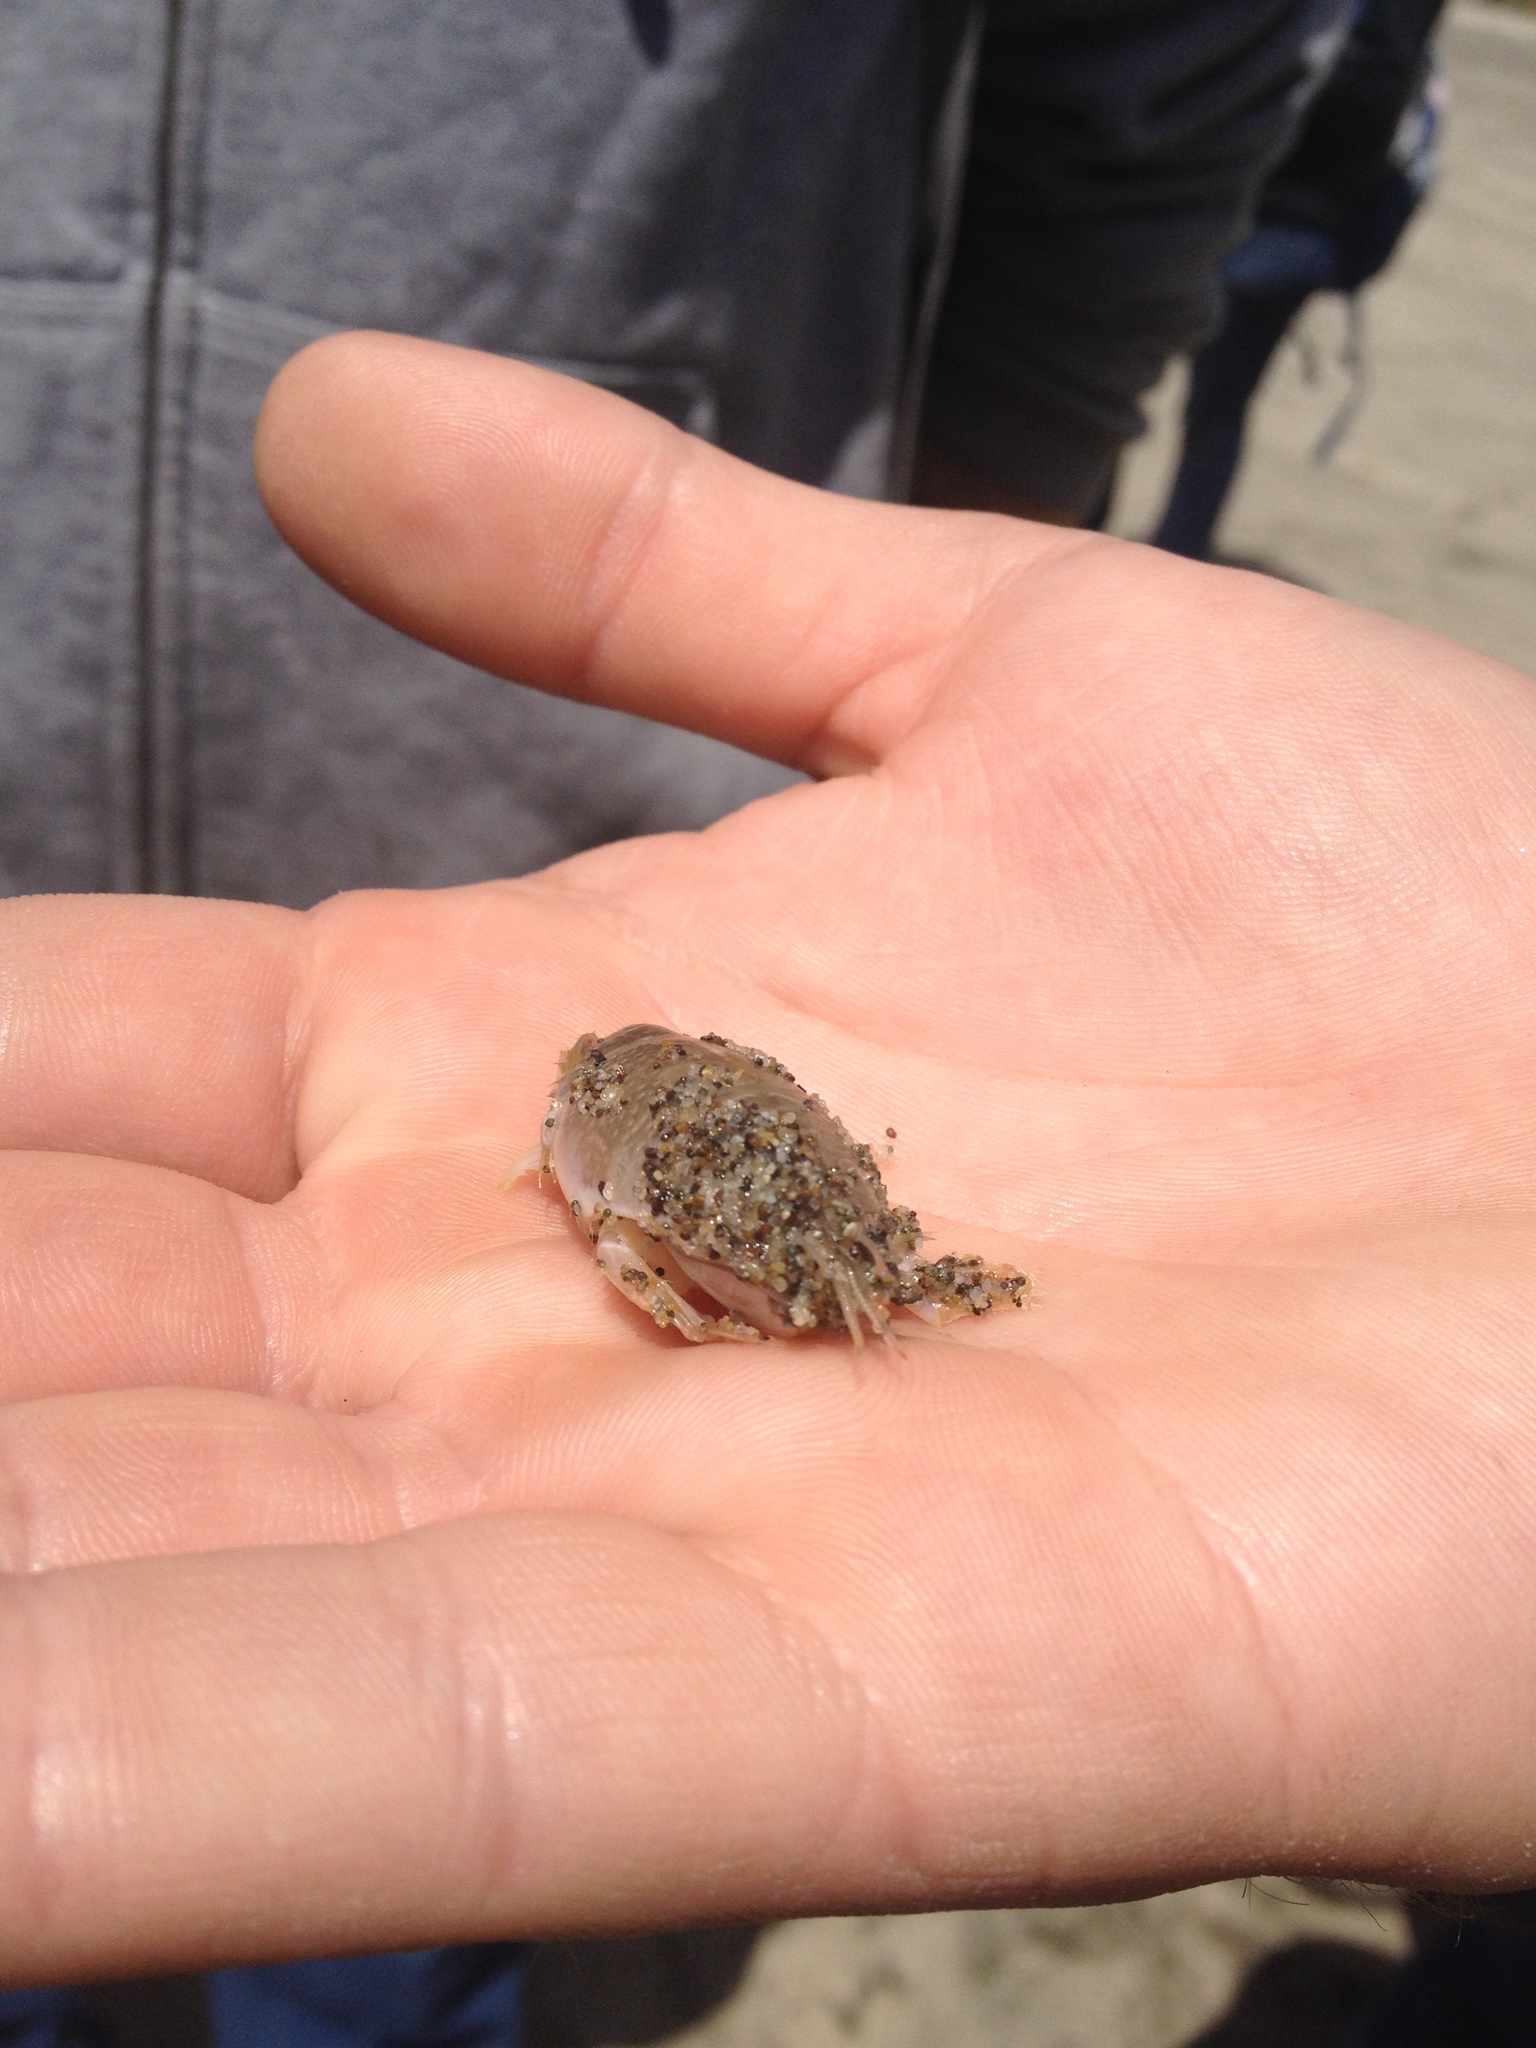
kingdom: Animalia
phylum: Arthropoda
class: Malacostraca
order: Decapoda
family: Hippidae
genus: Emerita
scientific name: Emerita analoga
